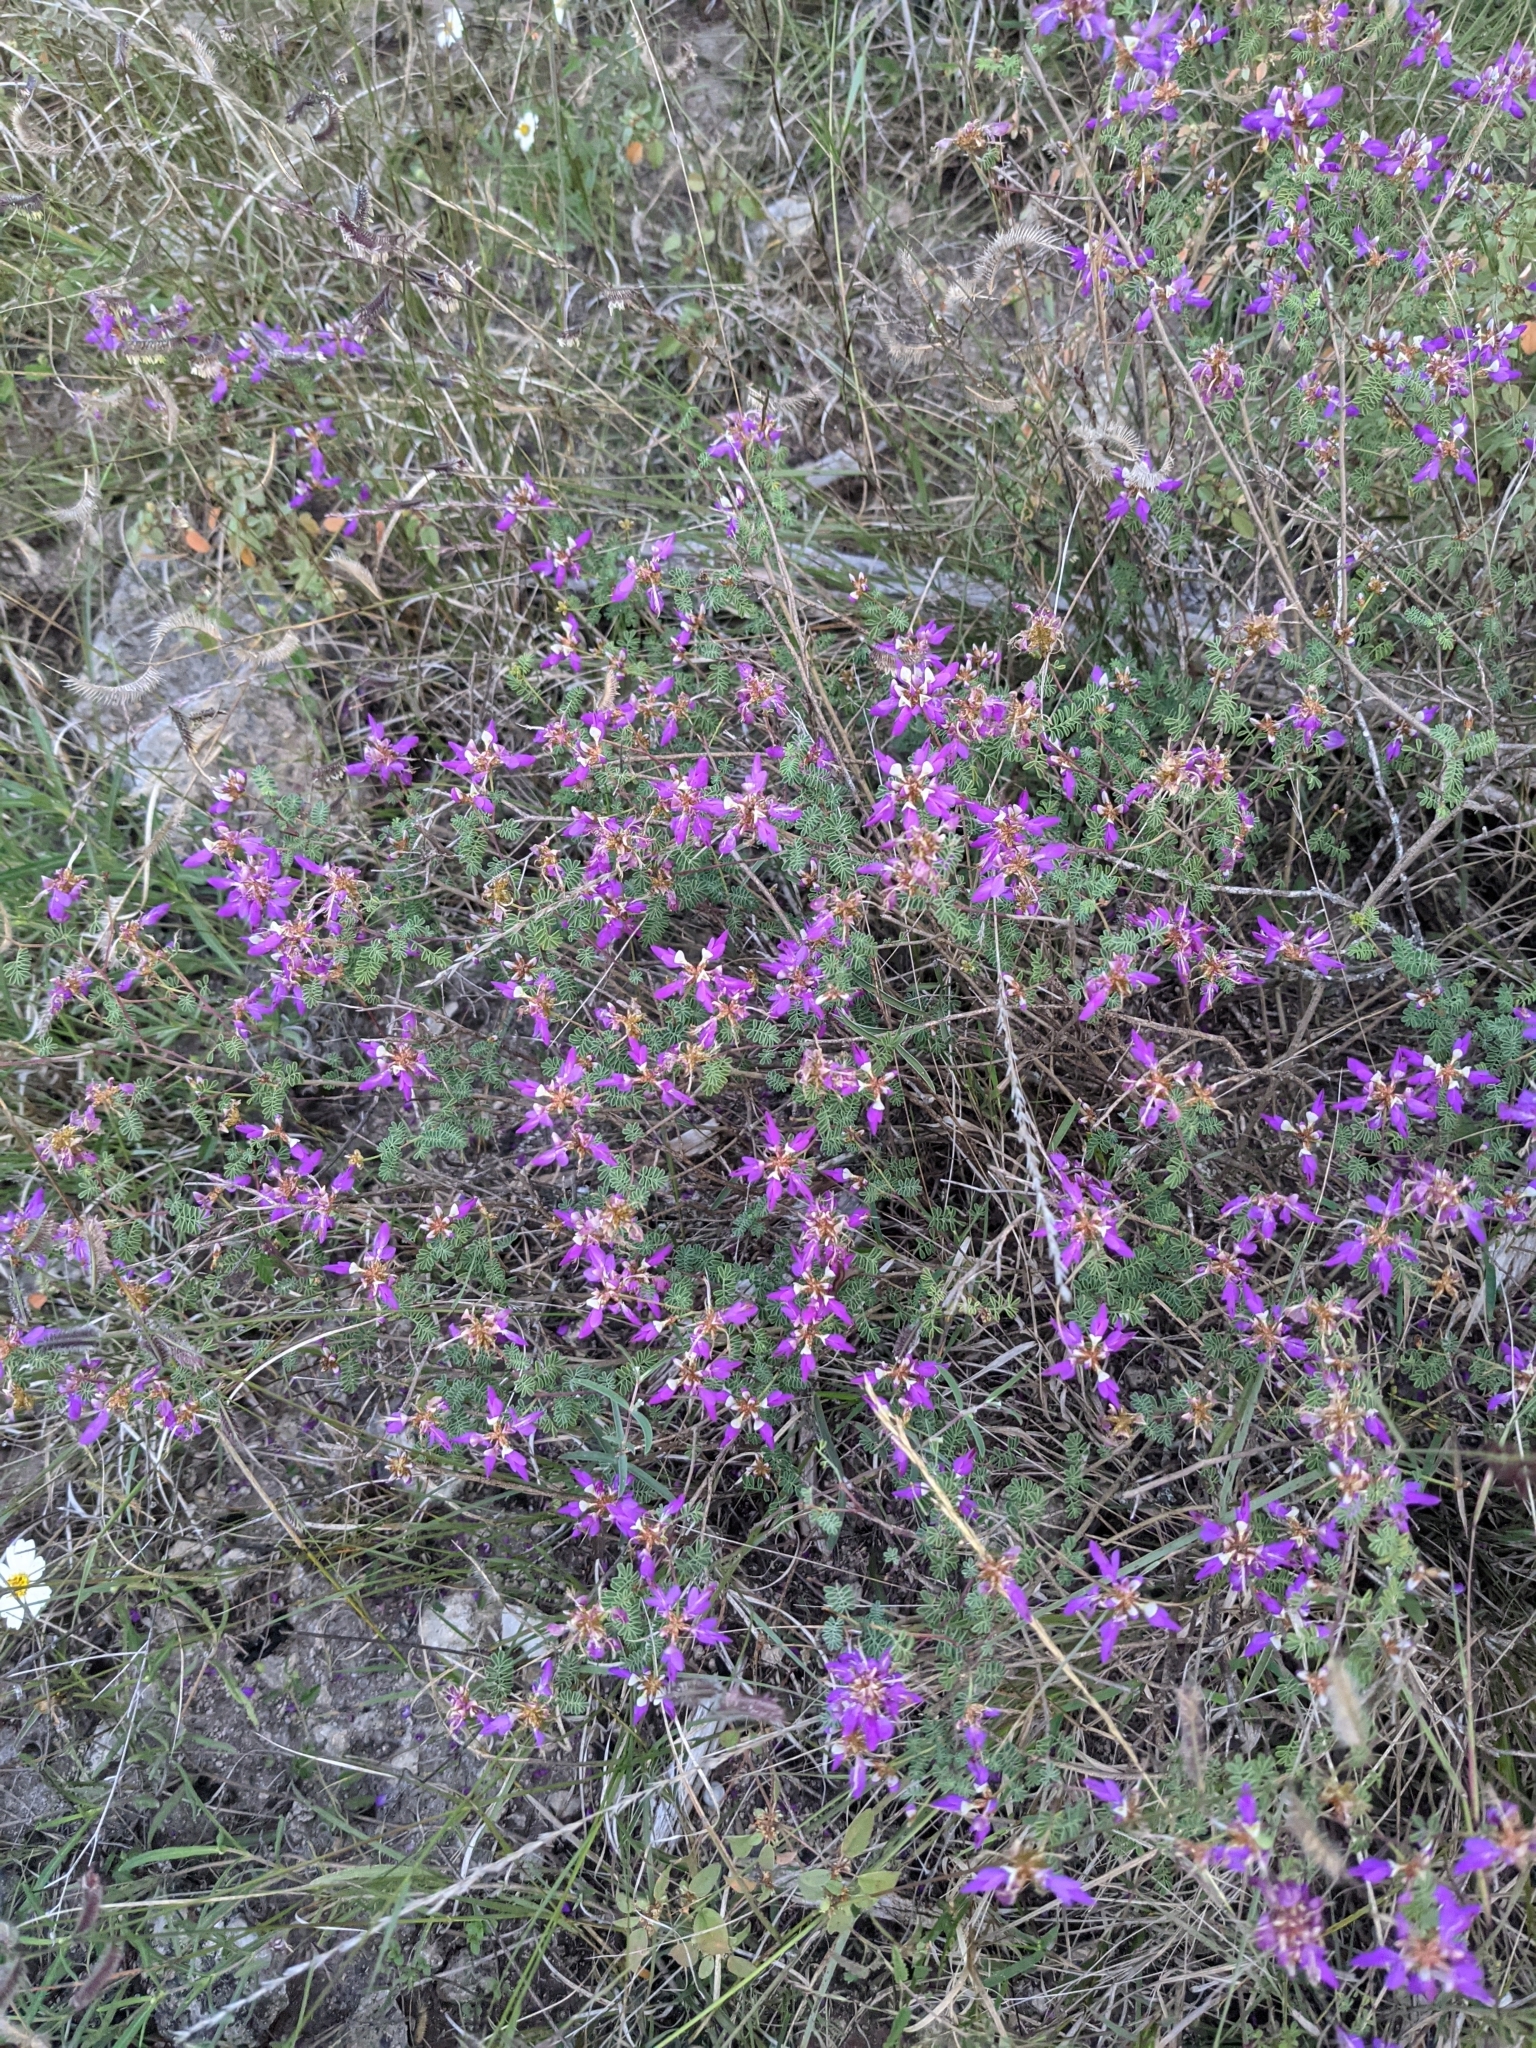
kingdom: Plantae
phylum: Tracheophyta
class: Magnoliopsida
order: Fabales
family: Fabaceae
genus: Dalea
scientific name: Dalea frutescens
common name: Black dalea
